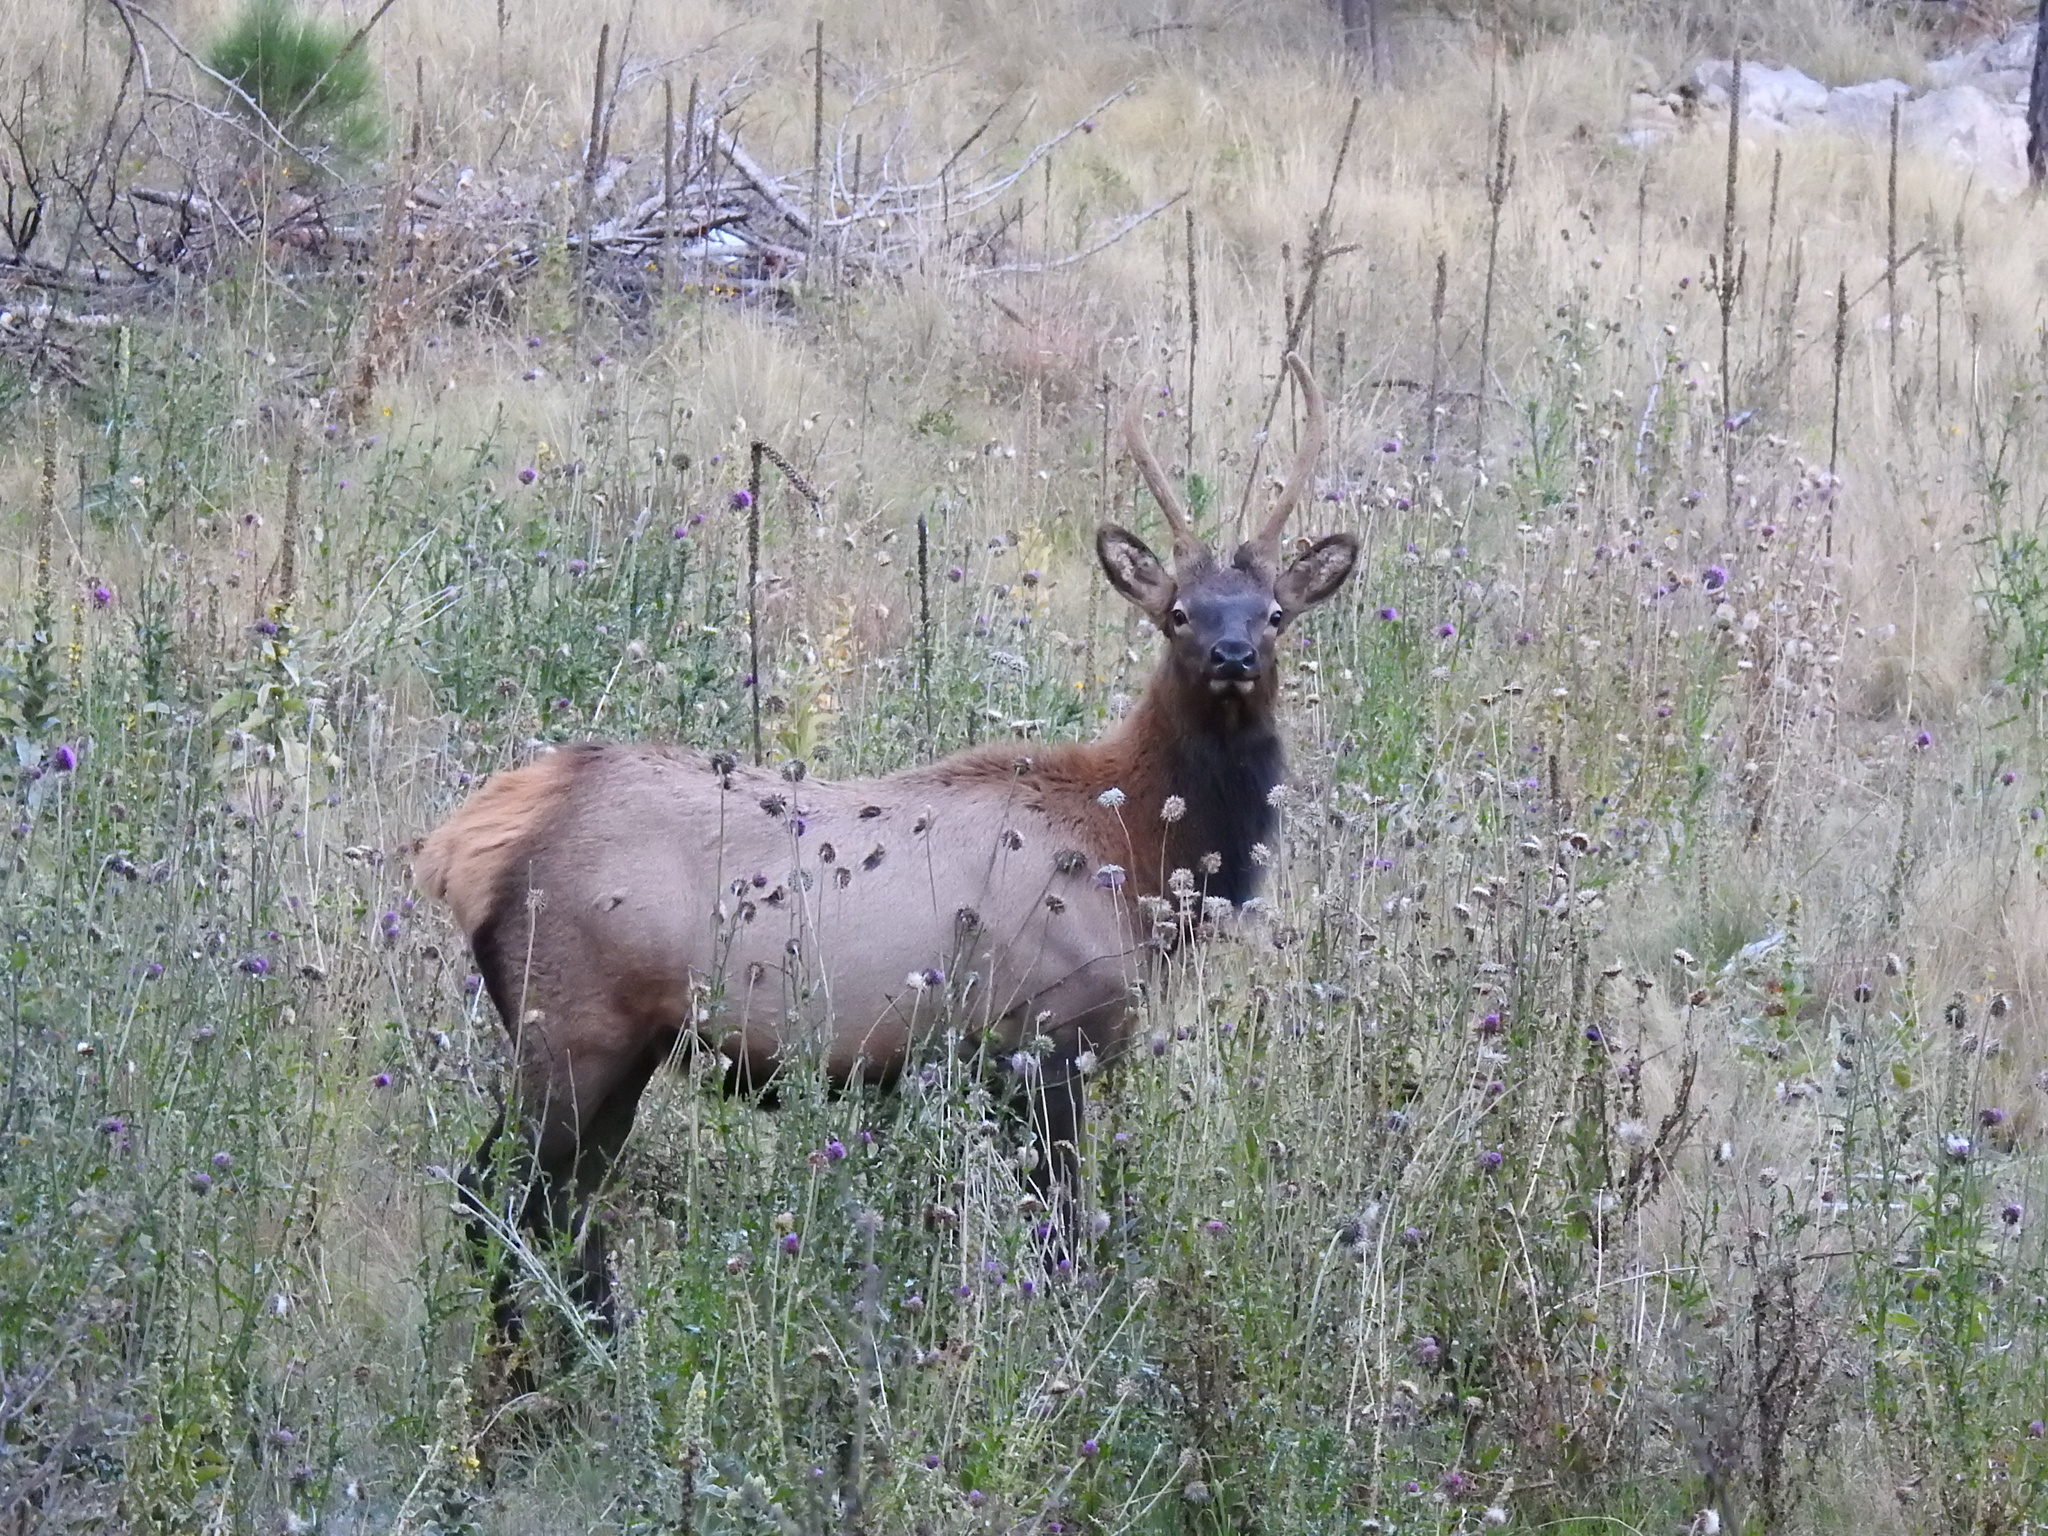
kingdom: Animalia
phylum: Chordata
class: Mammalia
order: Artiodactyla
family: Cervidae
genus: Cervus
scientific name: Cervus elaphus
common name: Red deer
